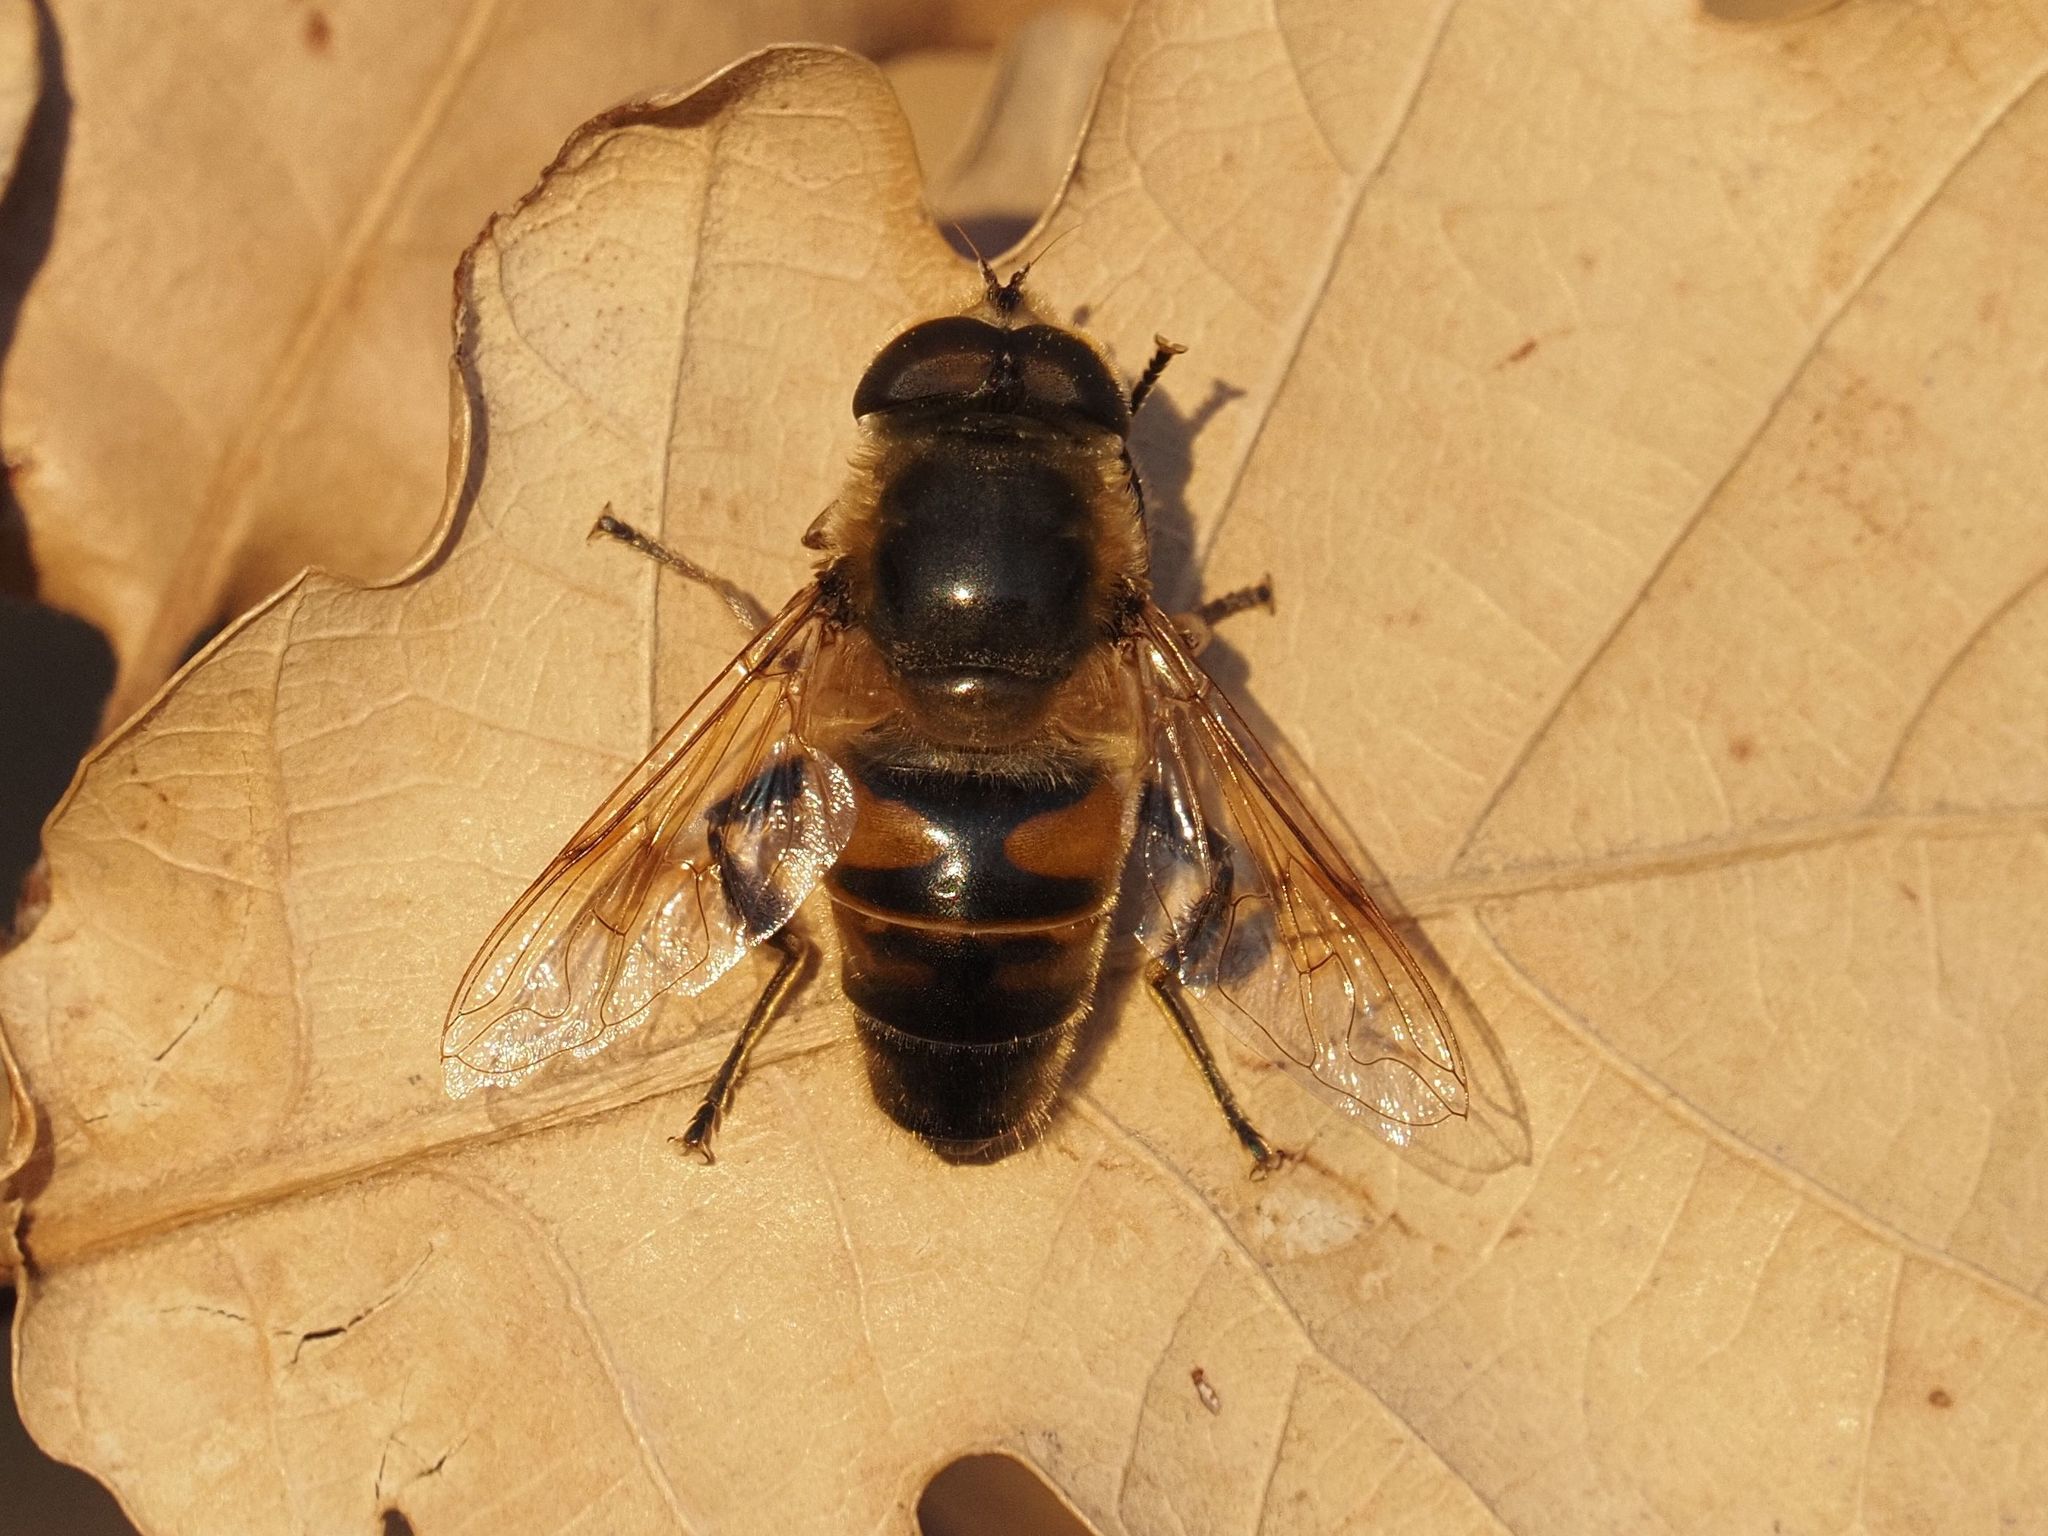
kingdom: Animalia
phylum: Arthropoda
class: Insecta
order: Diptera
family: Syrphidae
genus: Eristalis
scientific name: Eristalis tenax
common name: Drone fly
